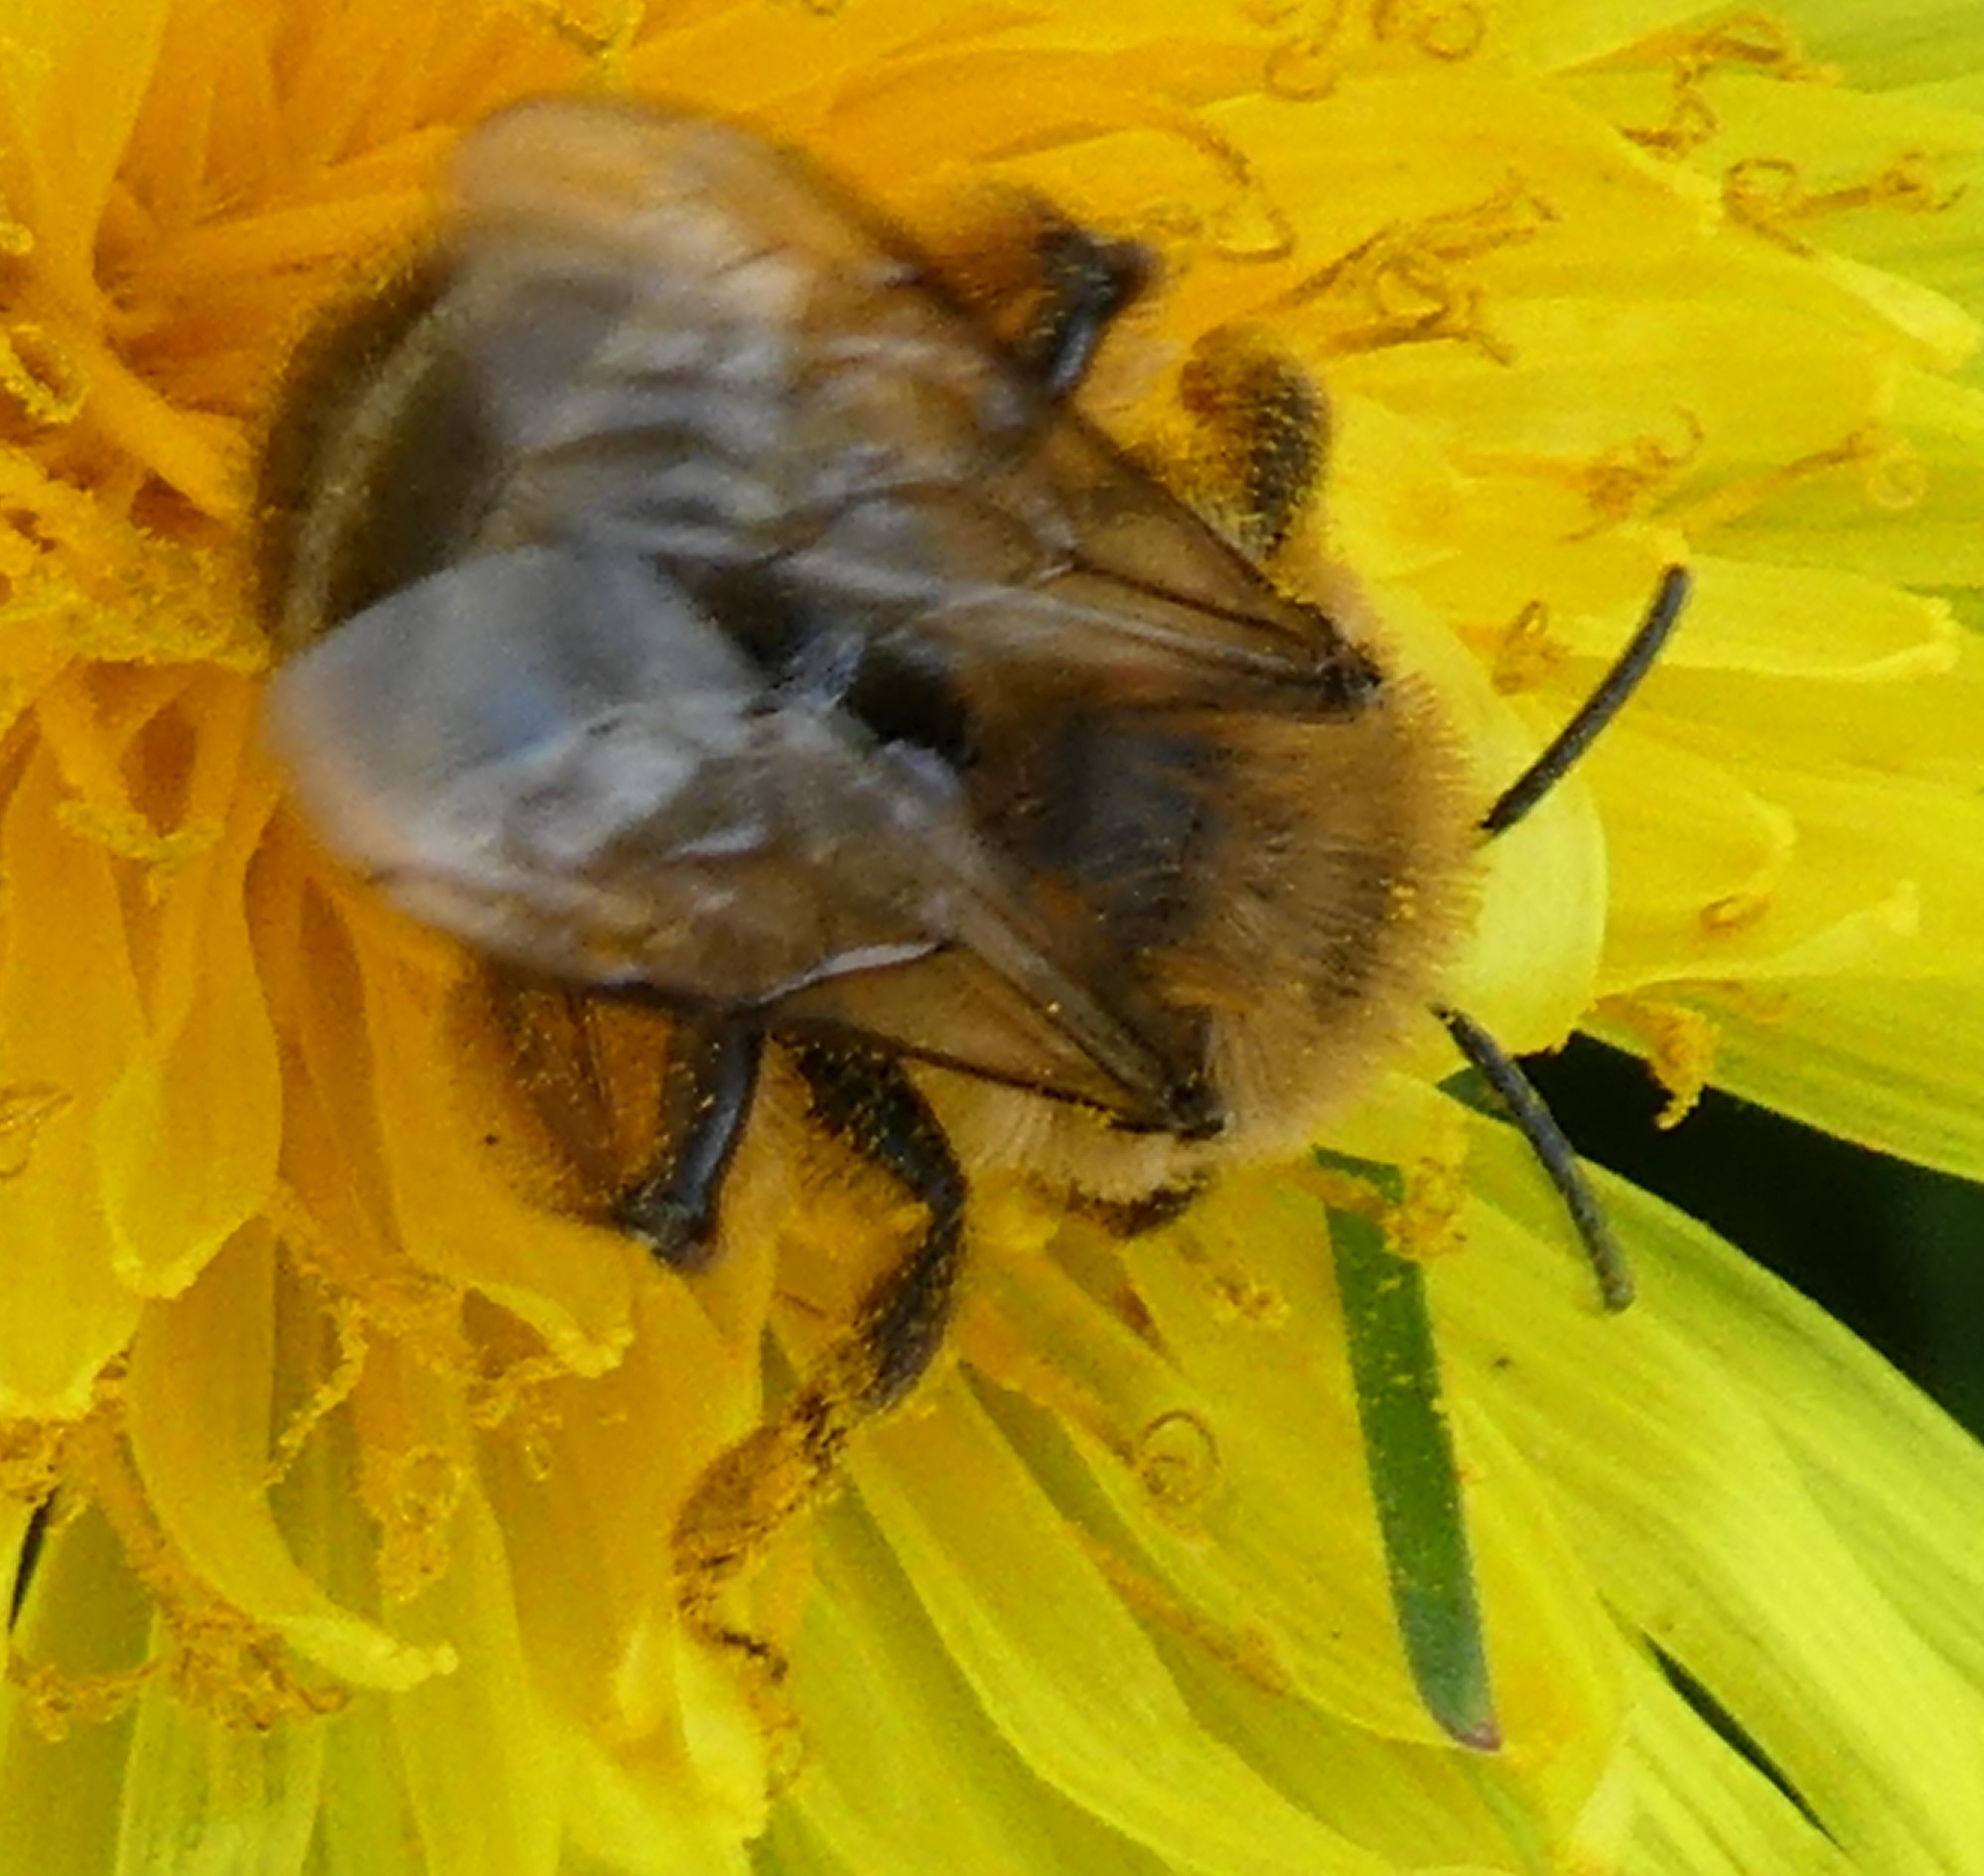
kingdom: Animalia
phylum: Arthropoda
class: Insecta
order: Hymenoptera
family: Andrenidae
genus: Andrena
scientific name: Andrena nigroaenea
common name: Buffish mining bee
